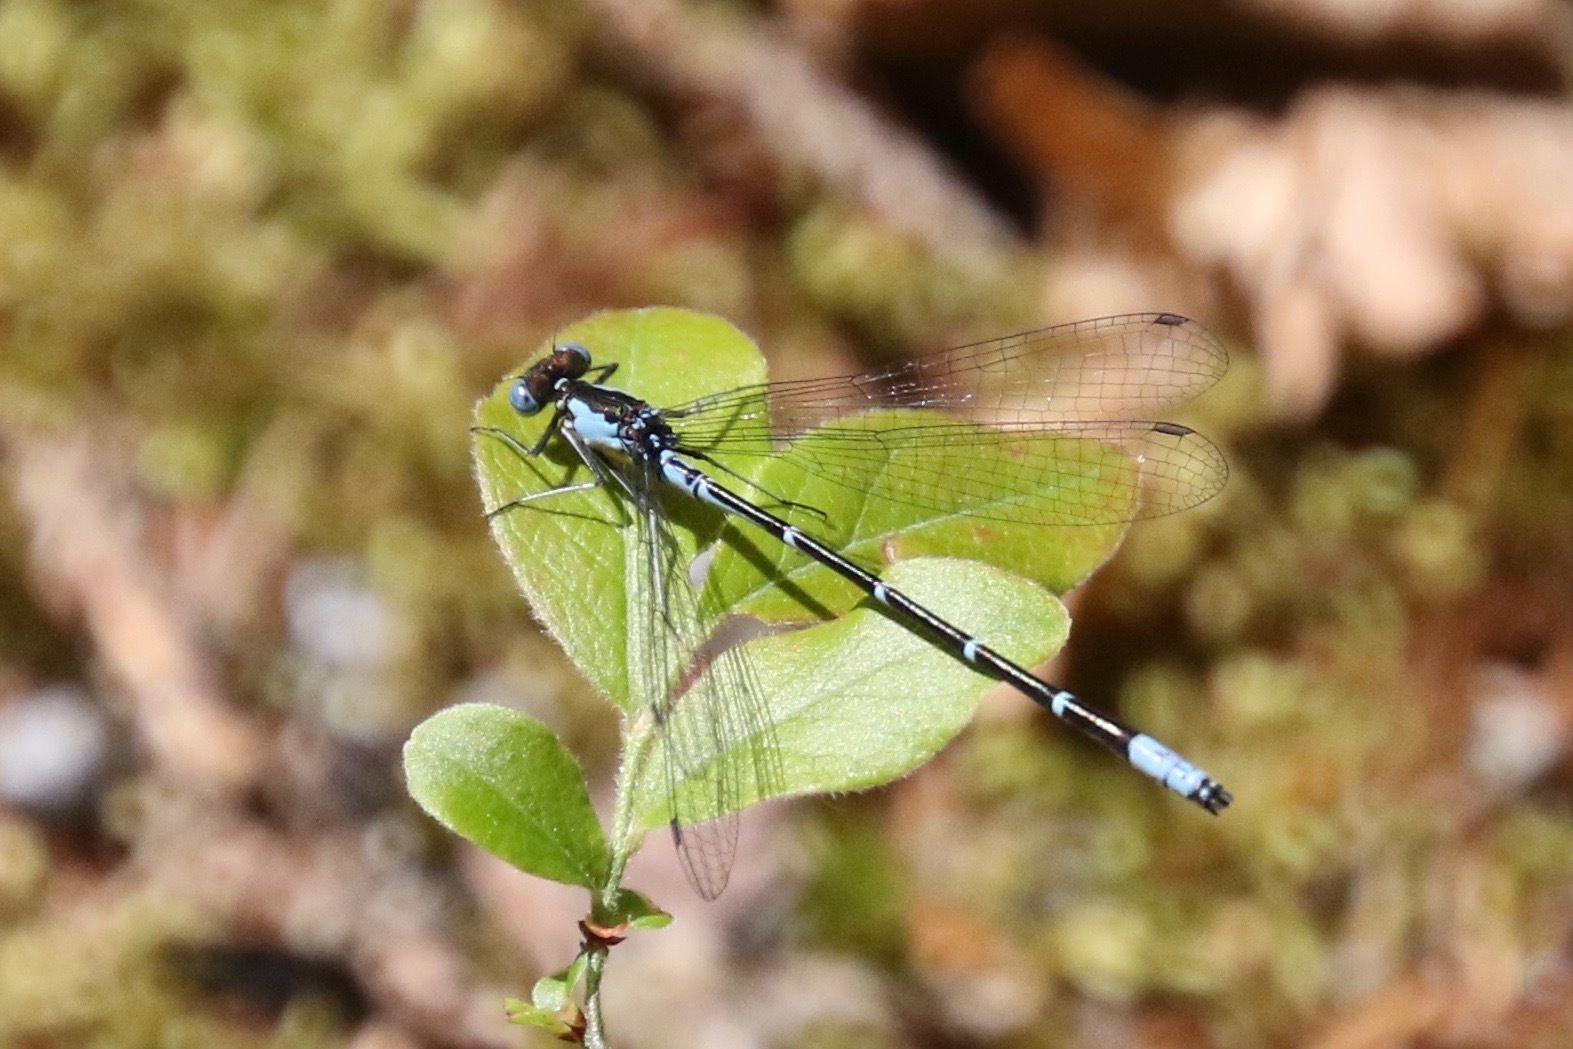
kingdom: Animalia
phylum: Arthropoda
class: Insecta
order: Odonata
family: Coenagrionidae
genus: Chromagrion
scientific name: Chromagrion conditum
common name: Aurora damsel
